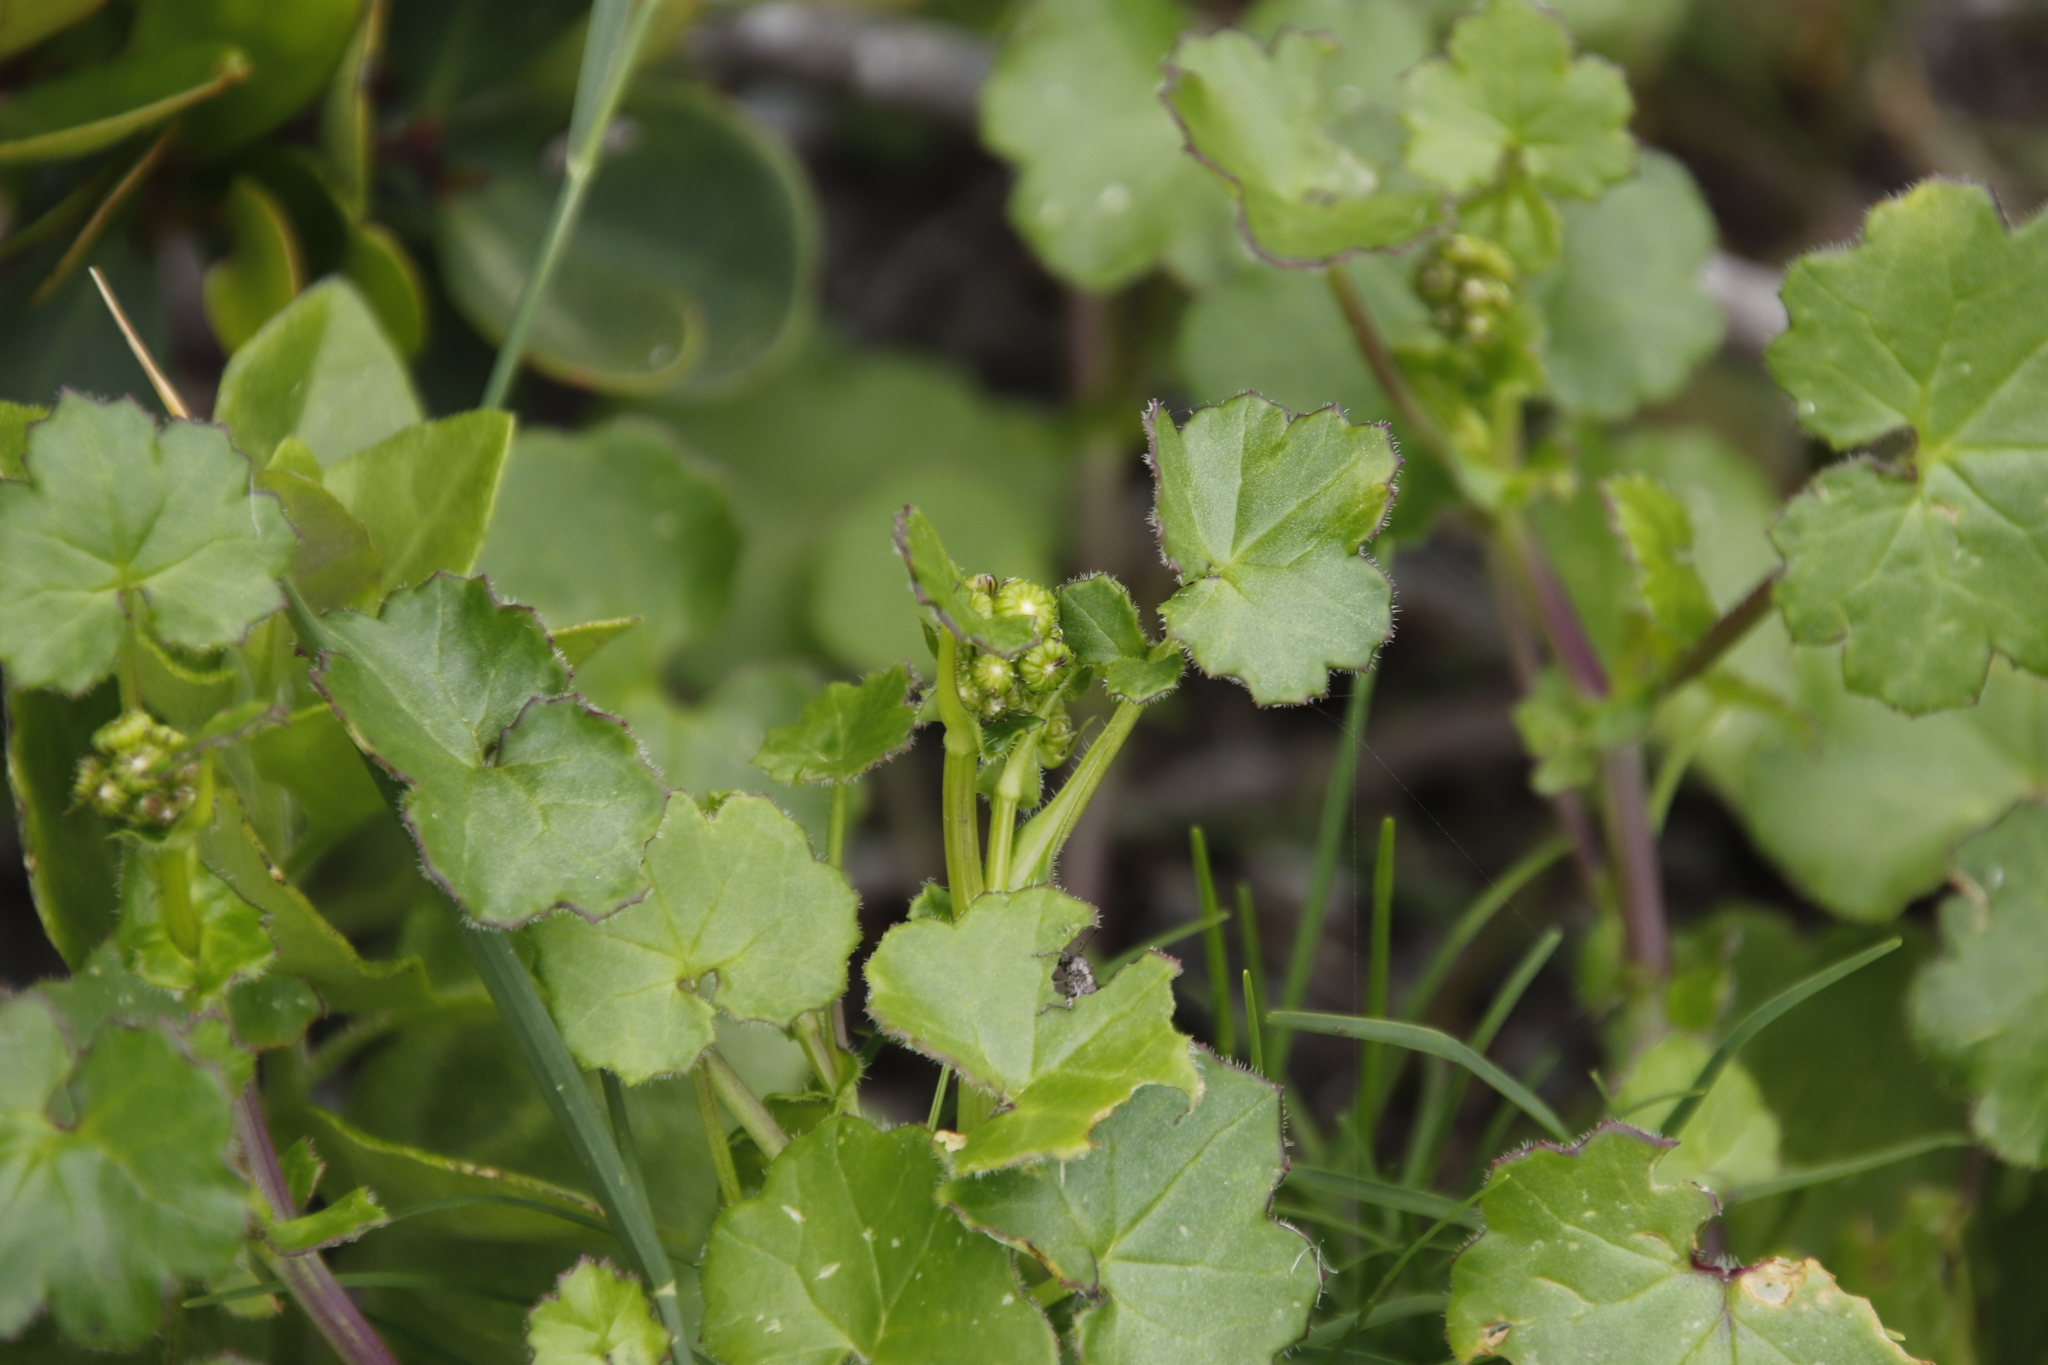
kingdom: Plantae
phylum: Tracheophyta
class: Magnoliopsida
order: Asterales
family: Asteraceae
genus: Cineraria
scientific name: Cineraria geifolia
